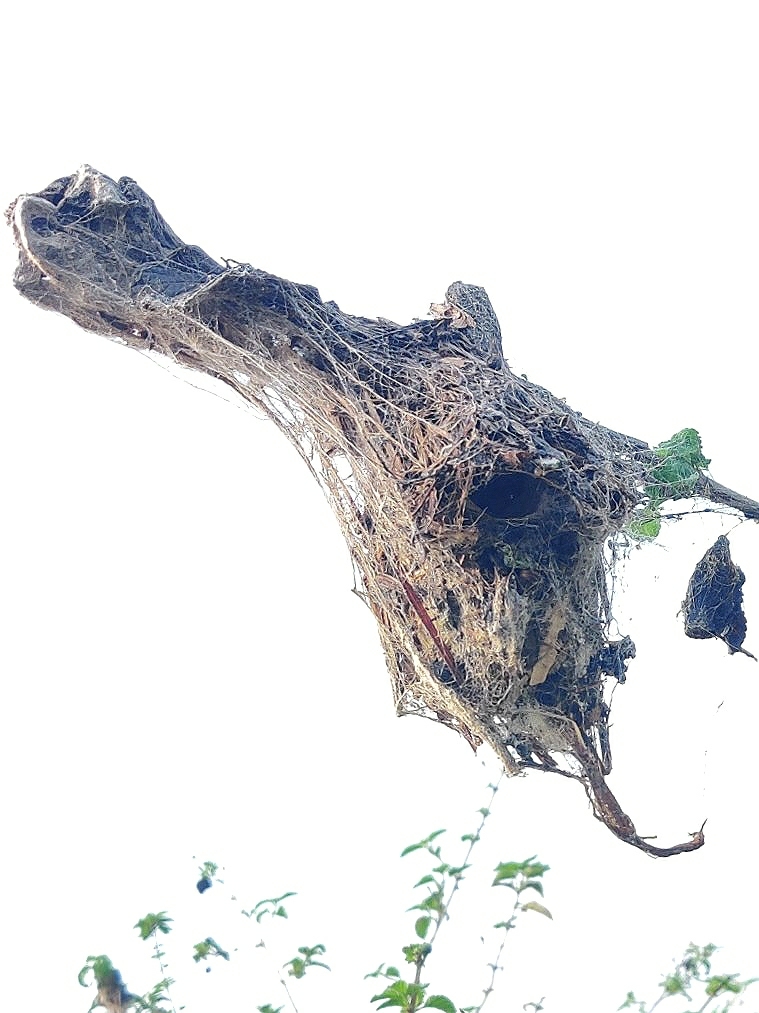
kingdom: Animalia
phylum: Chordata
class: Aves
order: Passeriformes
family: Nectariniidae
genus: Cinnyris
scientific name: Cinnyris asiaticus
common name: Purple sunbird
